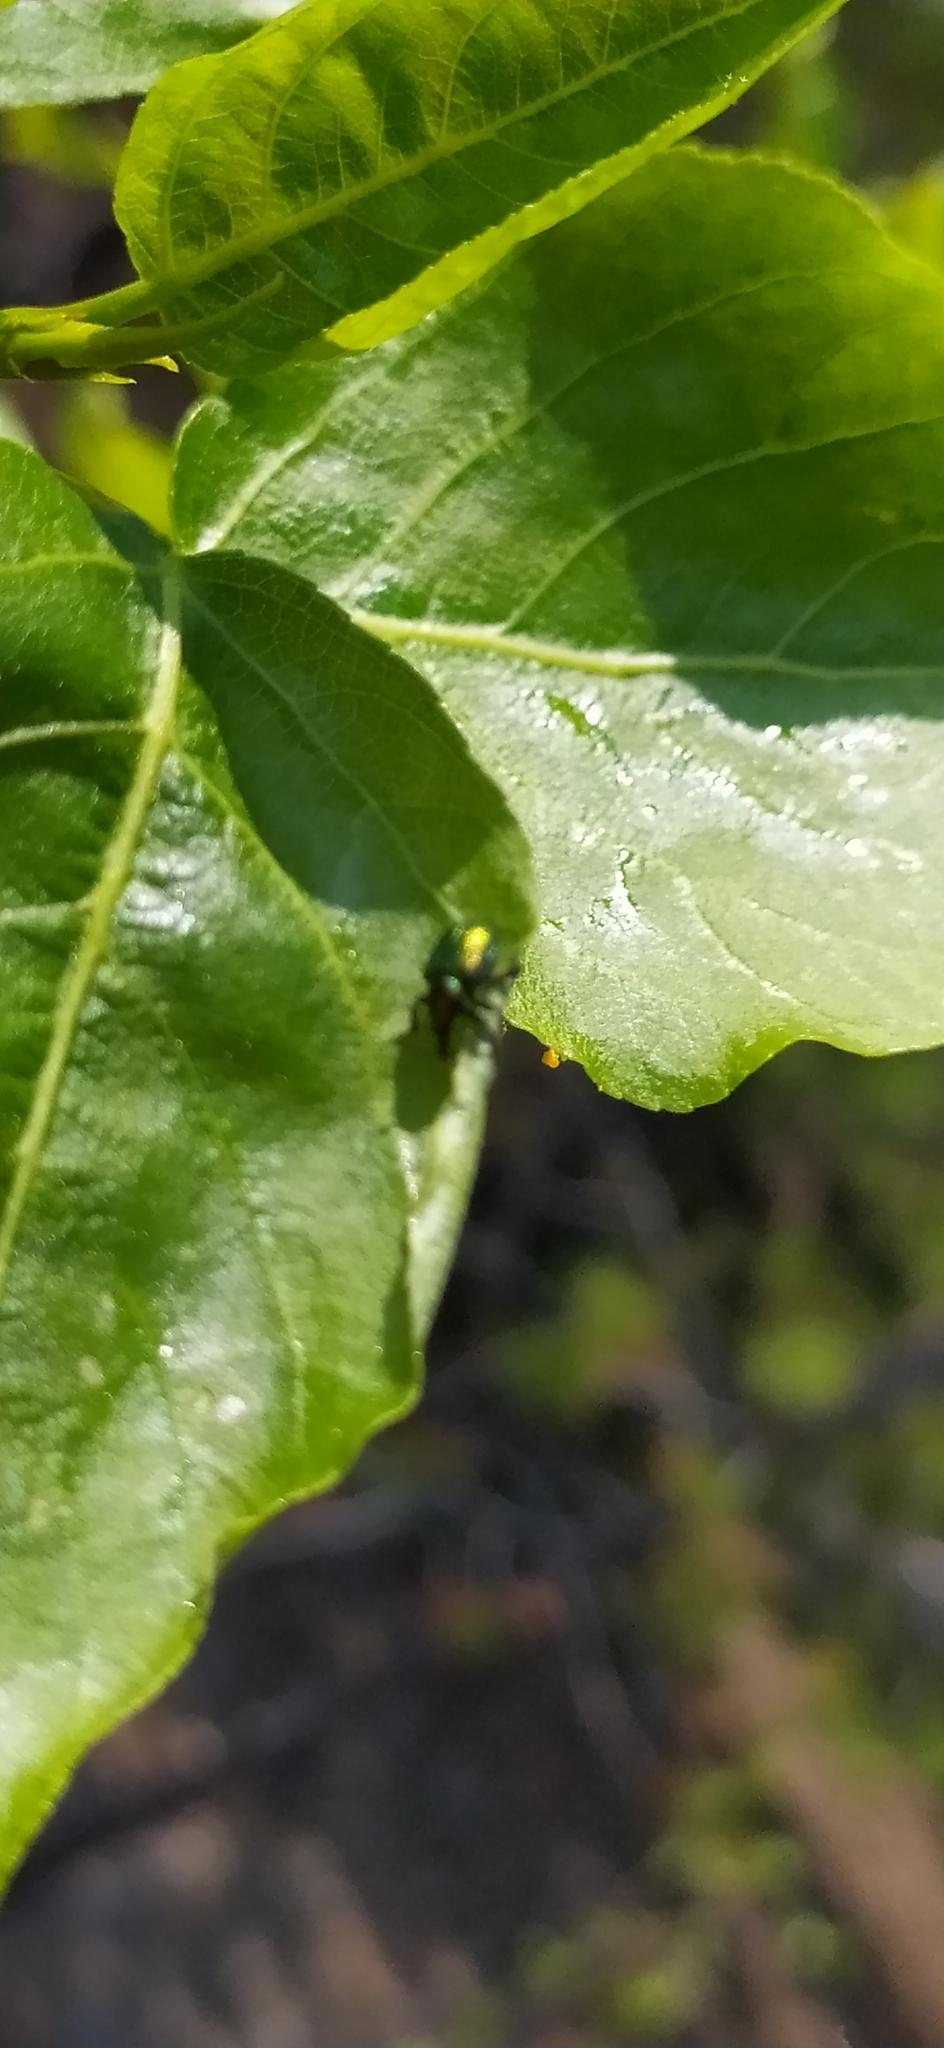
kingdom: Animalia
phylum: Arthropoda
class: Insecta
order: Coleoptera
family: Attelabidae
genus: Byctiscus
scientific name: Byctiscus populi
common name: Leaf-rolling weevil
